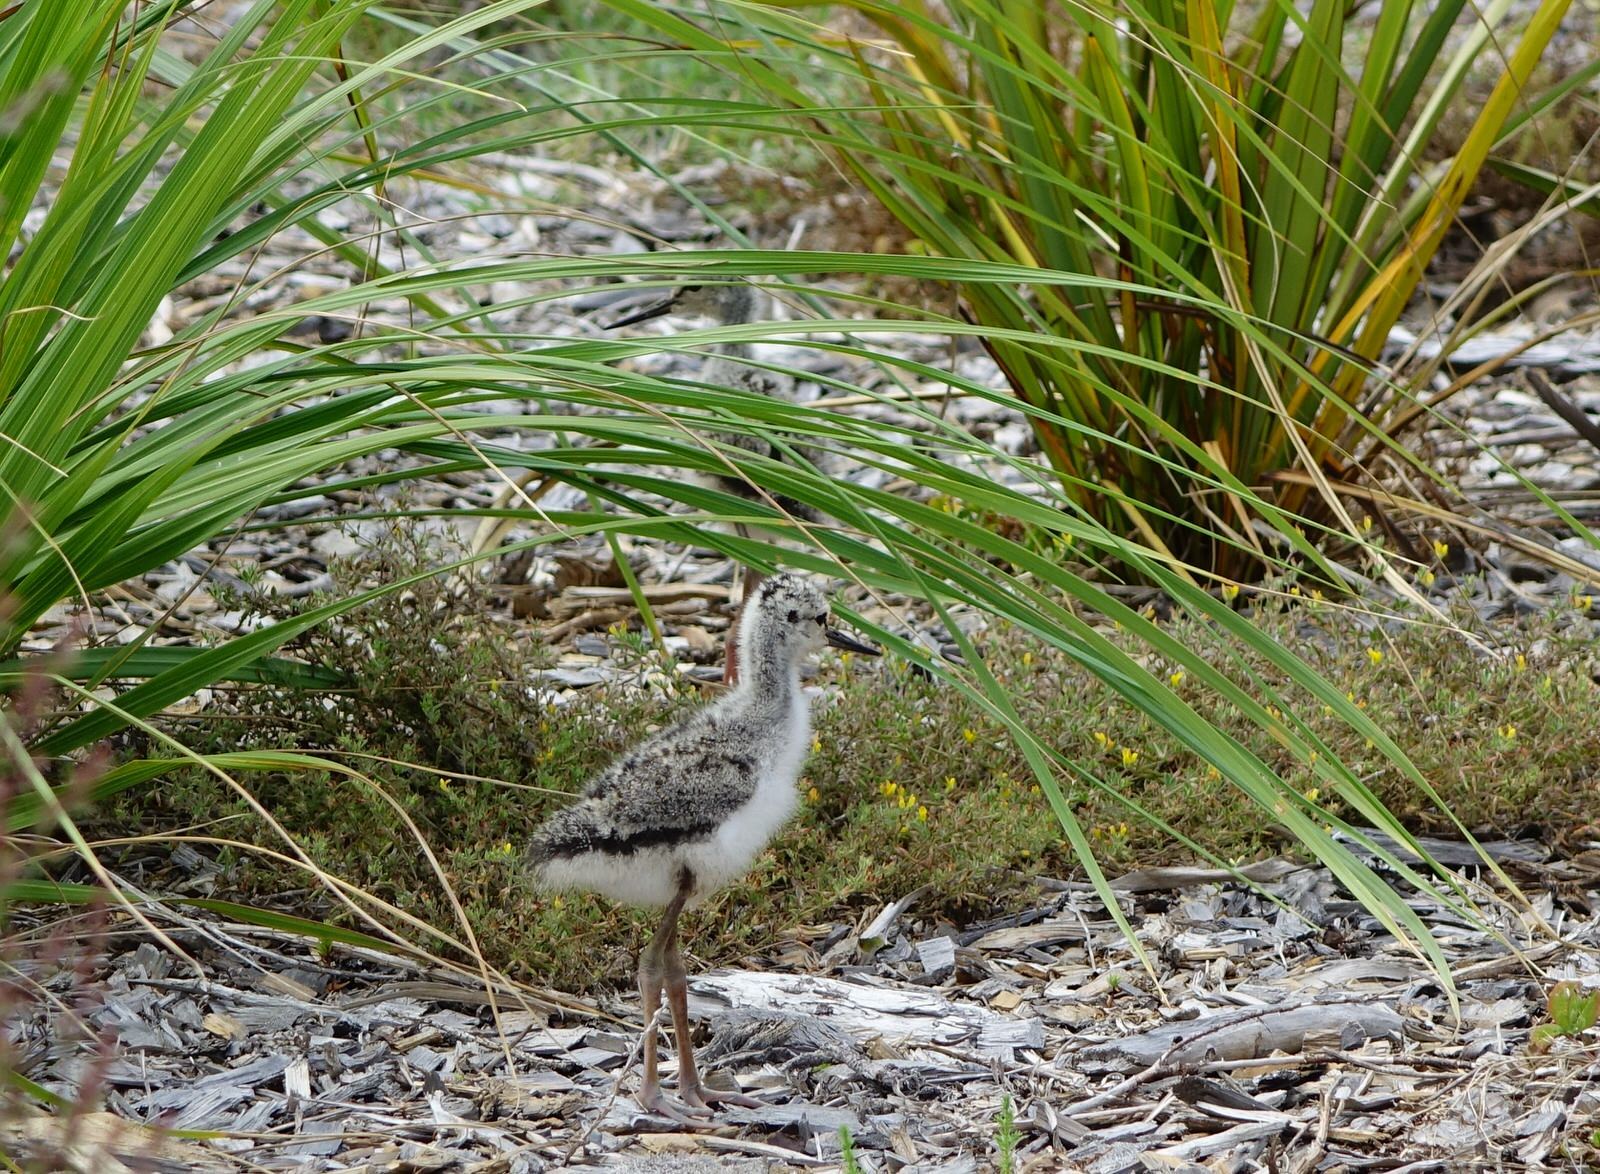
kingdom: Animalia
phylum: Chordata
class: Aves
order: Charadriiformes
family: Recurvirostridae
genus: Himantopus
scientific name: Himantopus leucocephalus
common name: White-headed stilt
